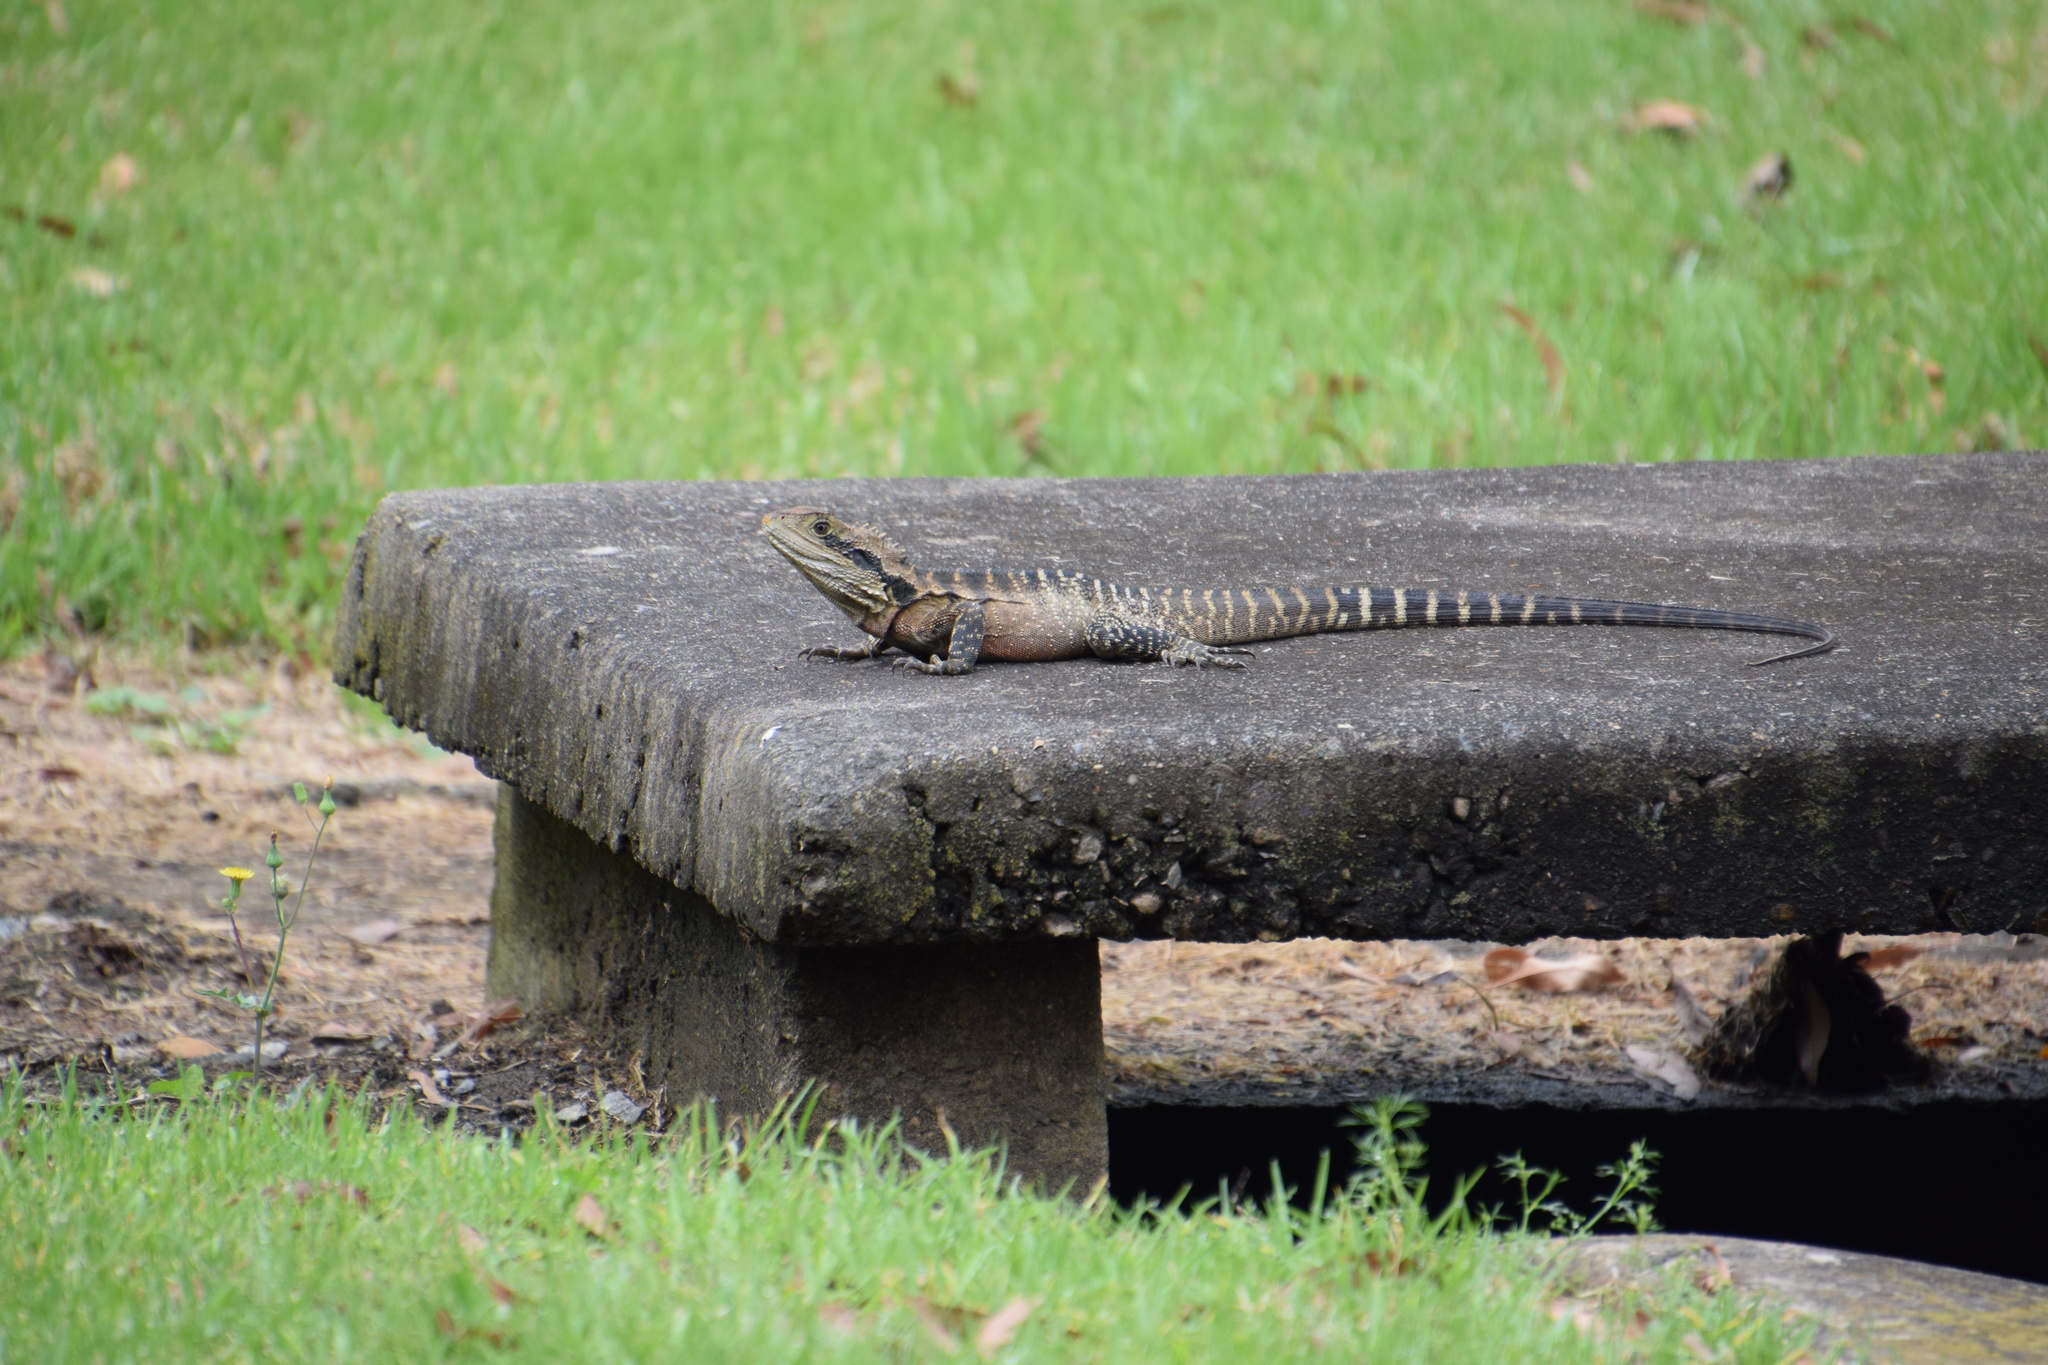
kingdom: Animalia
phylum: Chordata
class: Squamata
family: Agamidae
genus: Intellagama
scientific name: Intellagama lesueurii
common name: Eastern water dragon
